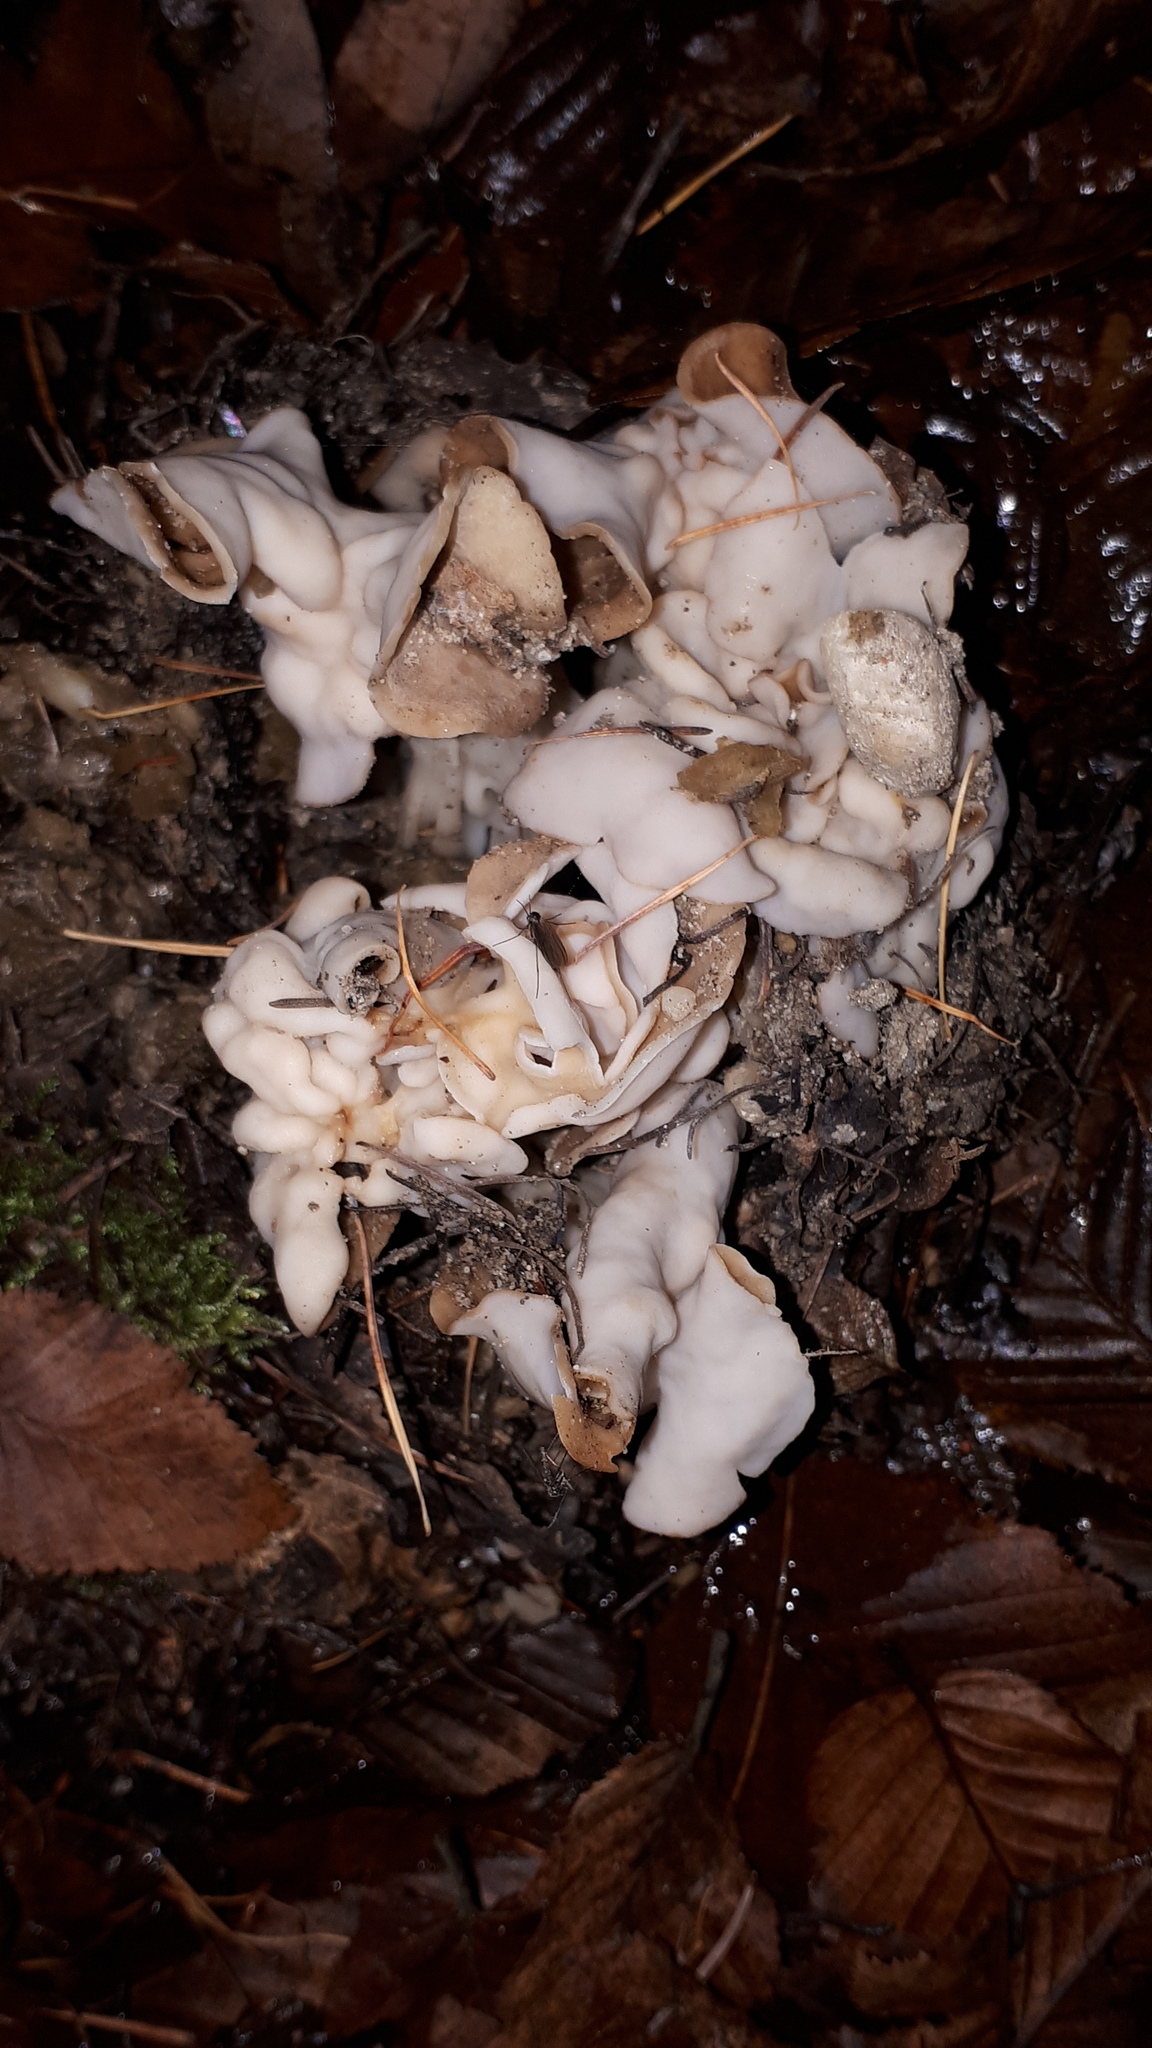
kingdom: Fungi
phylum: Ascomycota
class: Pezizomycetes
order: Pezizales
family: Helvellaceae
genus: Helvella
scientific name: Helvella crispa
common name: White saddle
